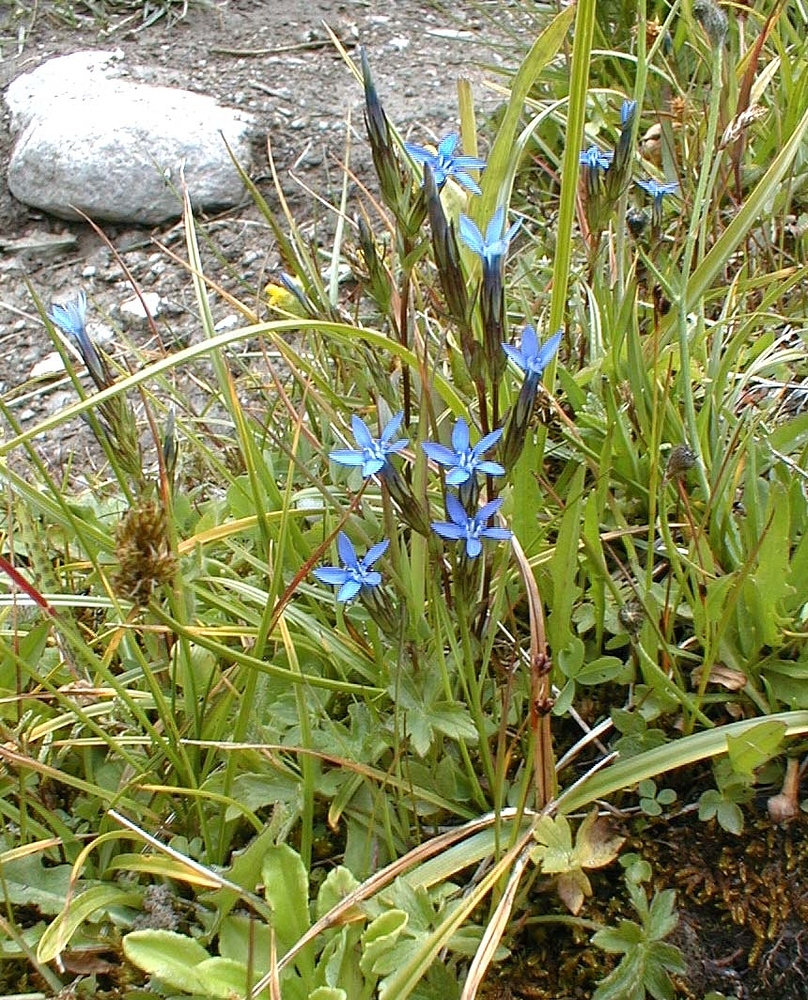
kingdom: Plantae
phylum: Tracheophyta
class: Magnoliopsida
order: Gentianales
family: Gentianaceae
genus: Gentiana
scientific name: Gentiana nivalis
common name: Alpine gentian
